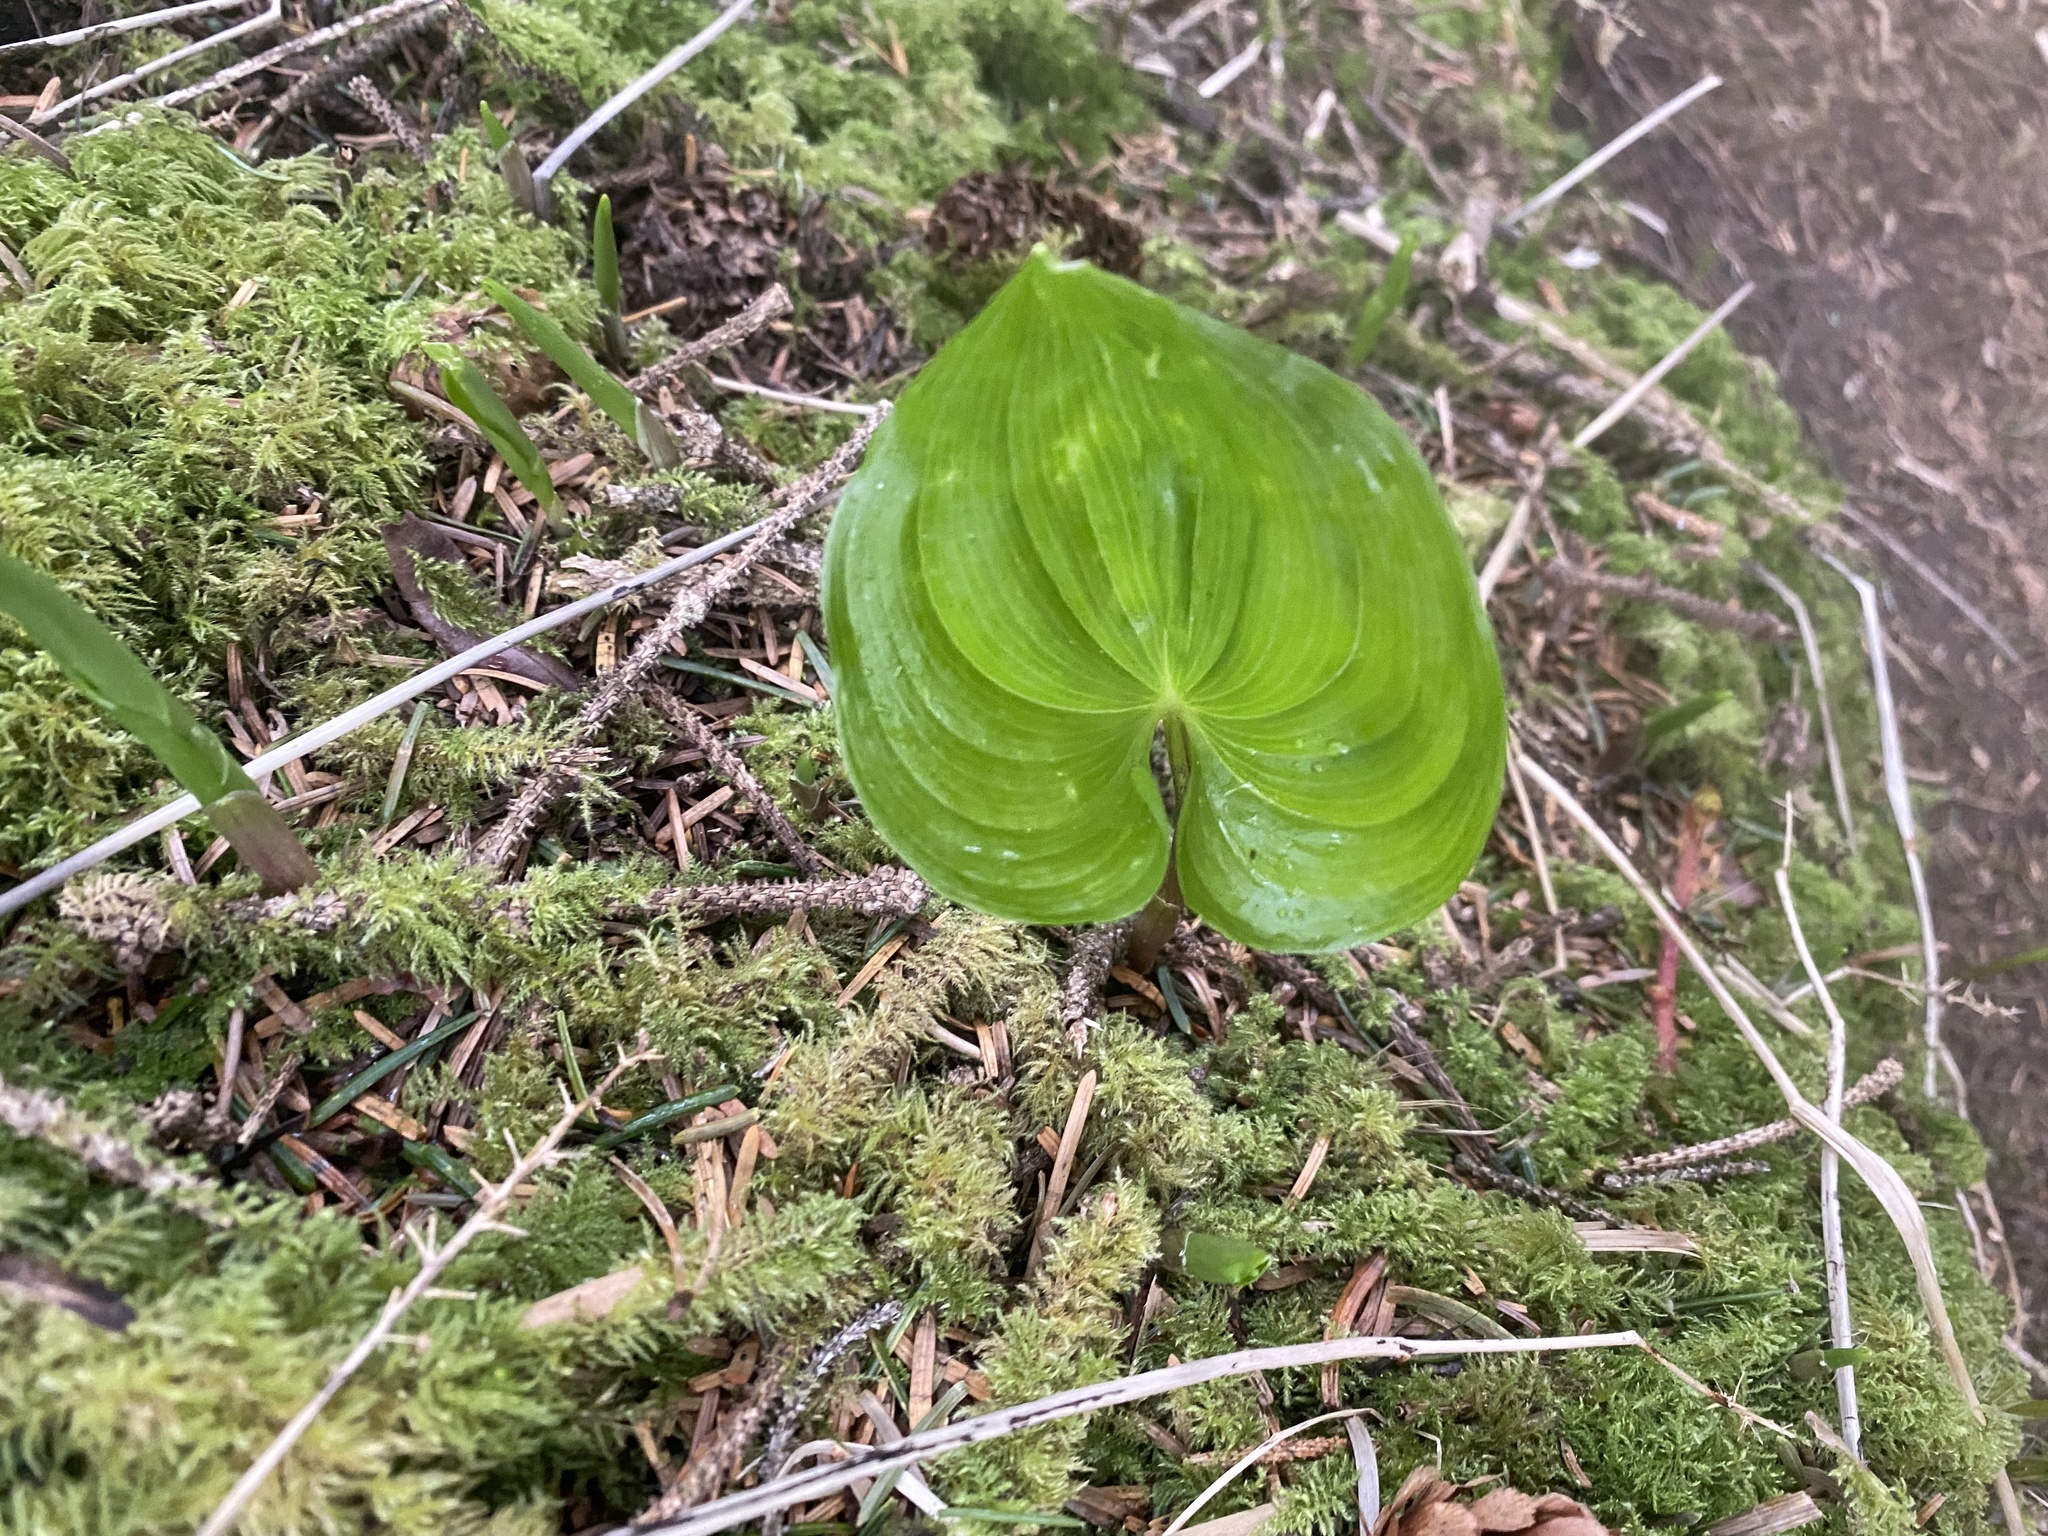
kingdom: Plantae
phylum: Tracheophyta
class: Liliopsida
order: Asparagales
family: Asparagaceae
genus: Maianthemum
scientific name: Maianthemum dilatatum
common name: False lily-of-the-valley
